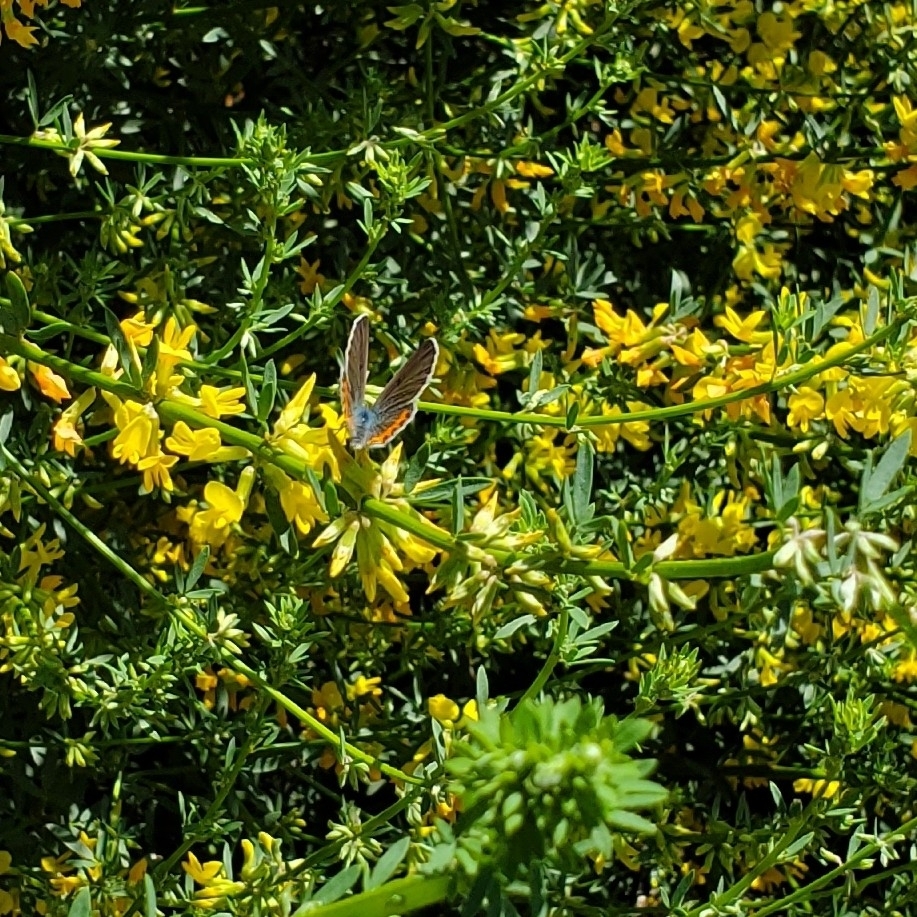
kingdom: Animalia
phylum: Arthropoda
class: Insecta
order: Lepidoptera
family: Lycaenidae
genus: Icaricia
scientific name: Icaricia acmon
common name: Acmon blue
